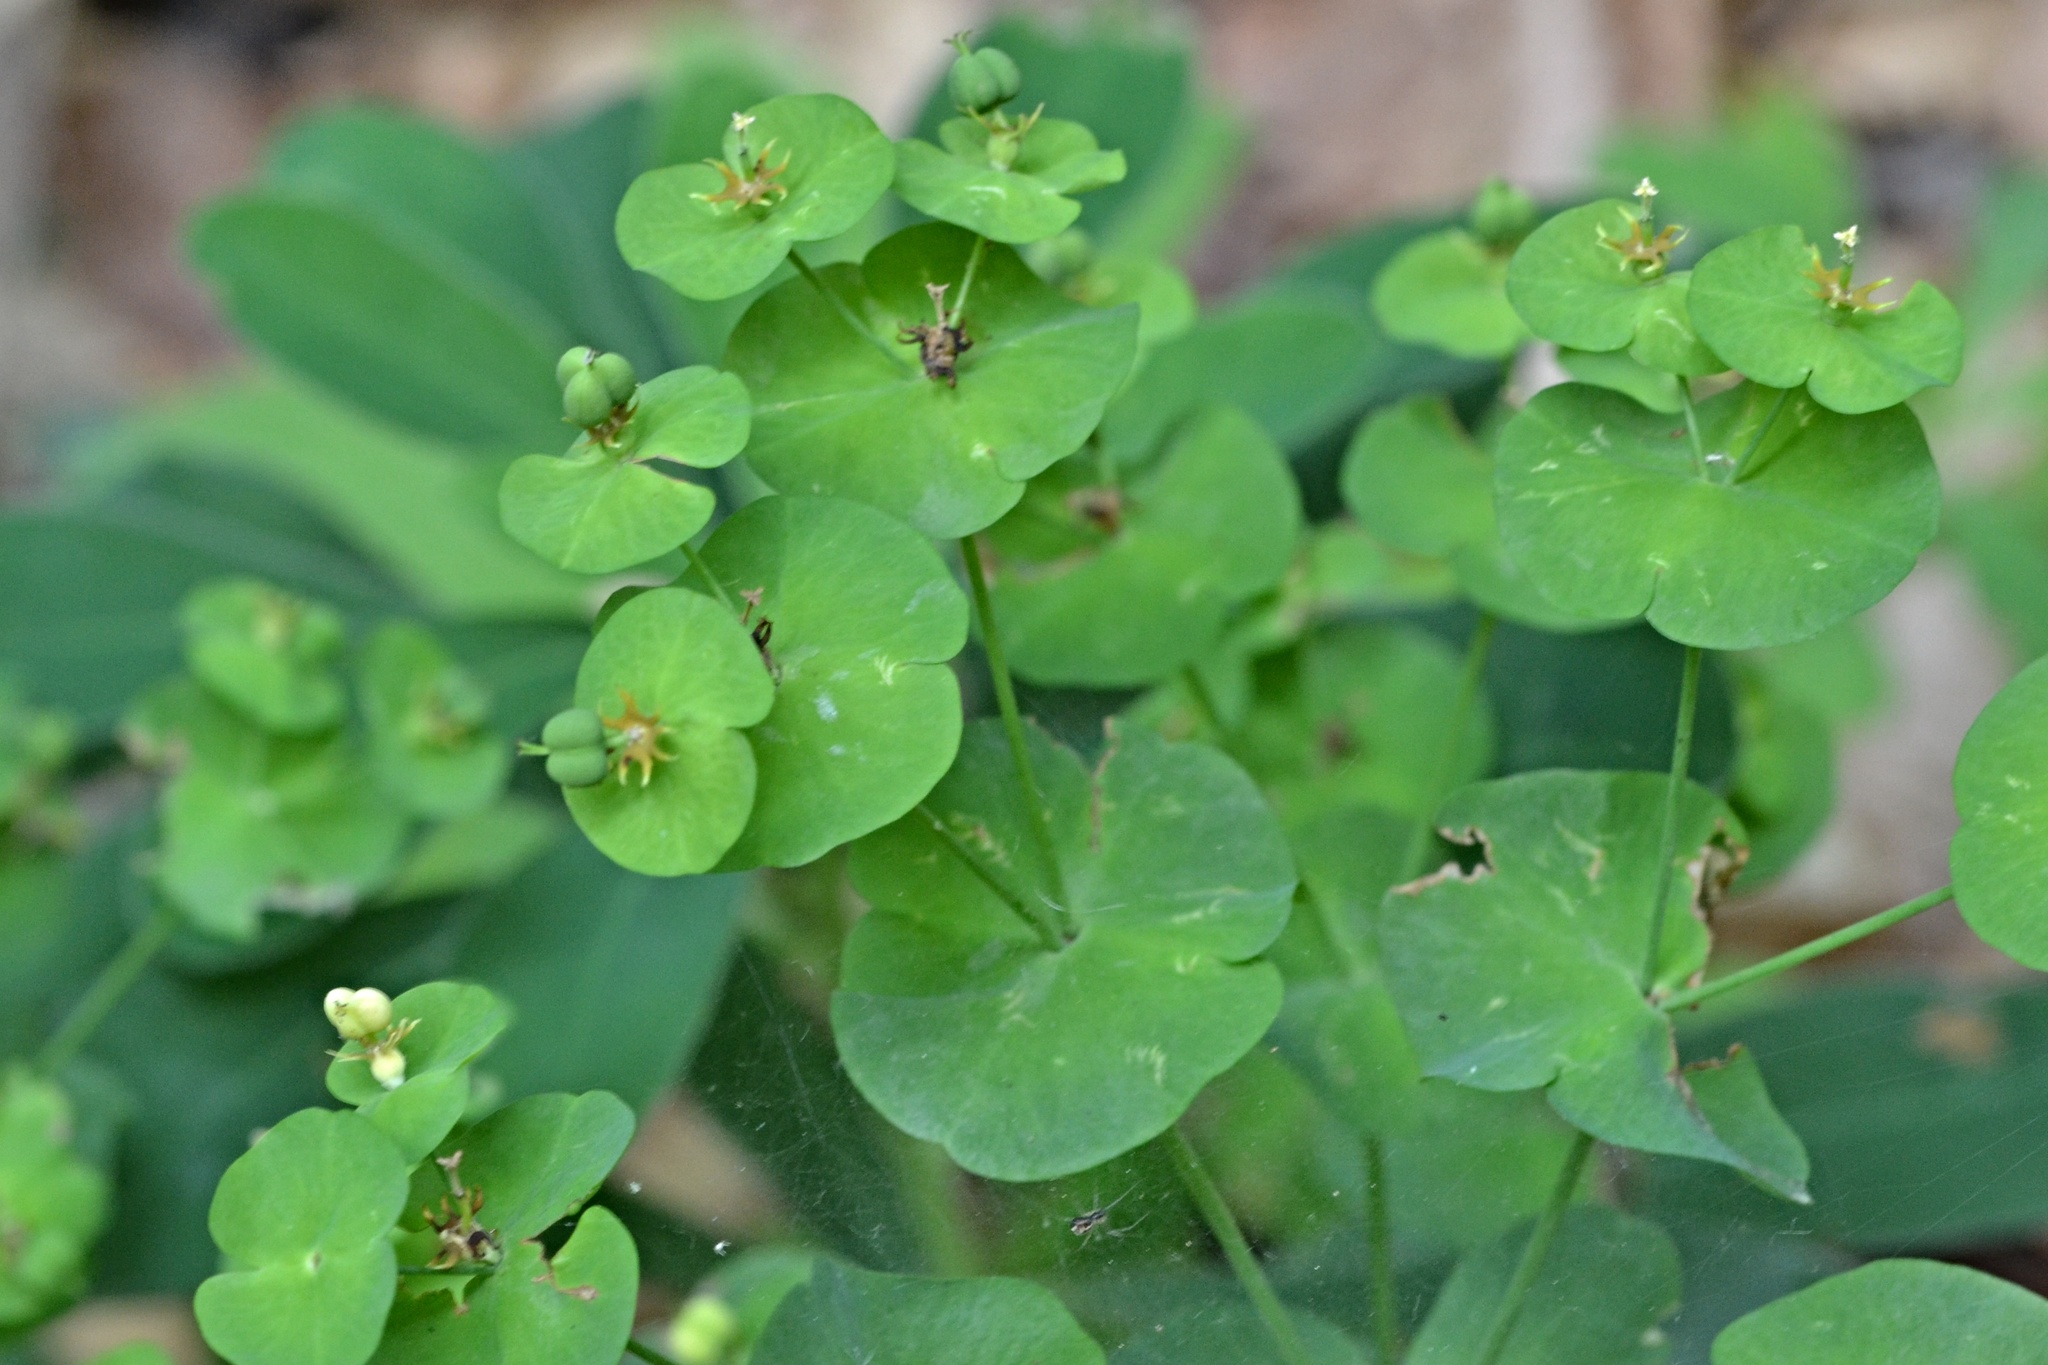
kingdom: Plantae
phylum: Tracheophyta
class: Magnoliopsida
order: Malpighiales
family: Euphorbiaceae
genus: Euphorbia
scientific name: Euphorbia amygdaloides
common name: Wood spurge
